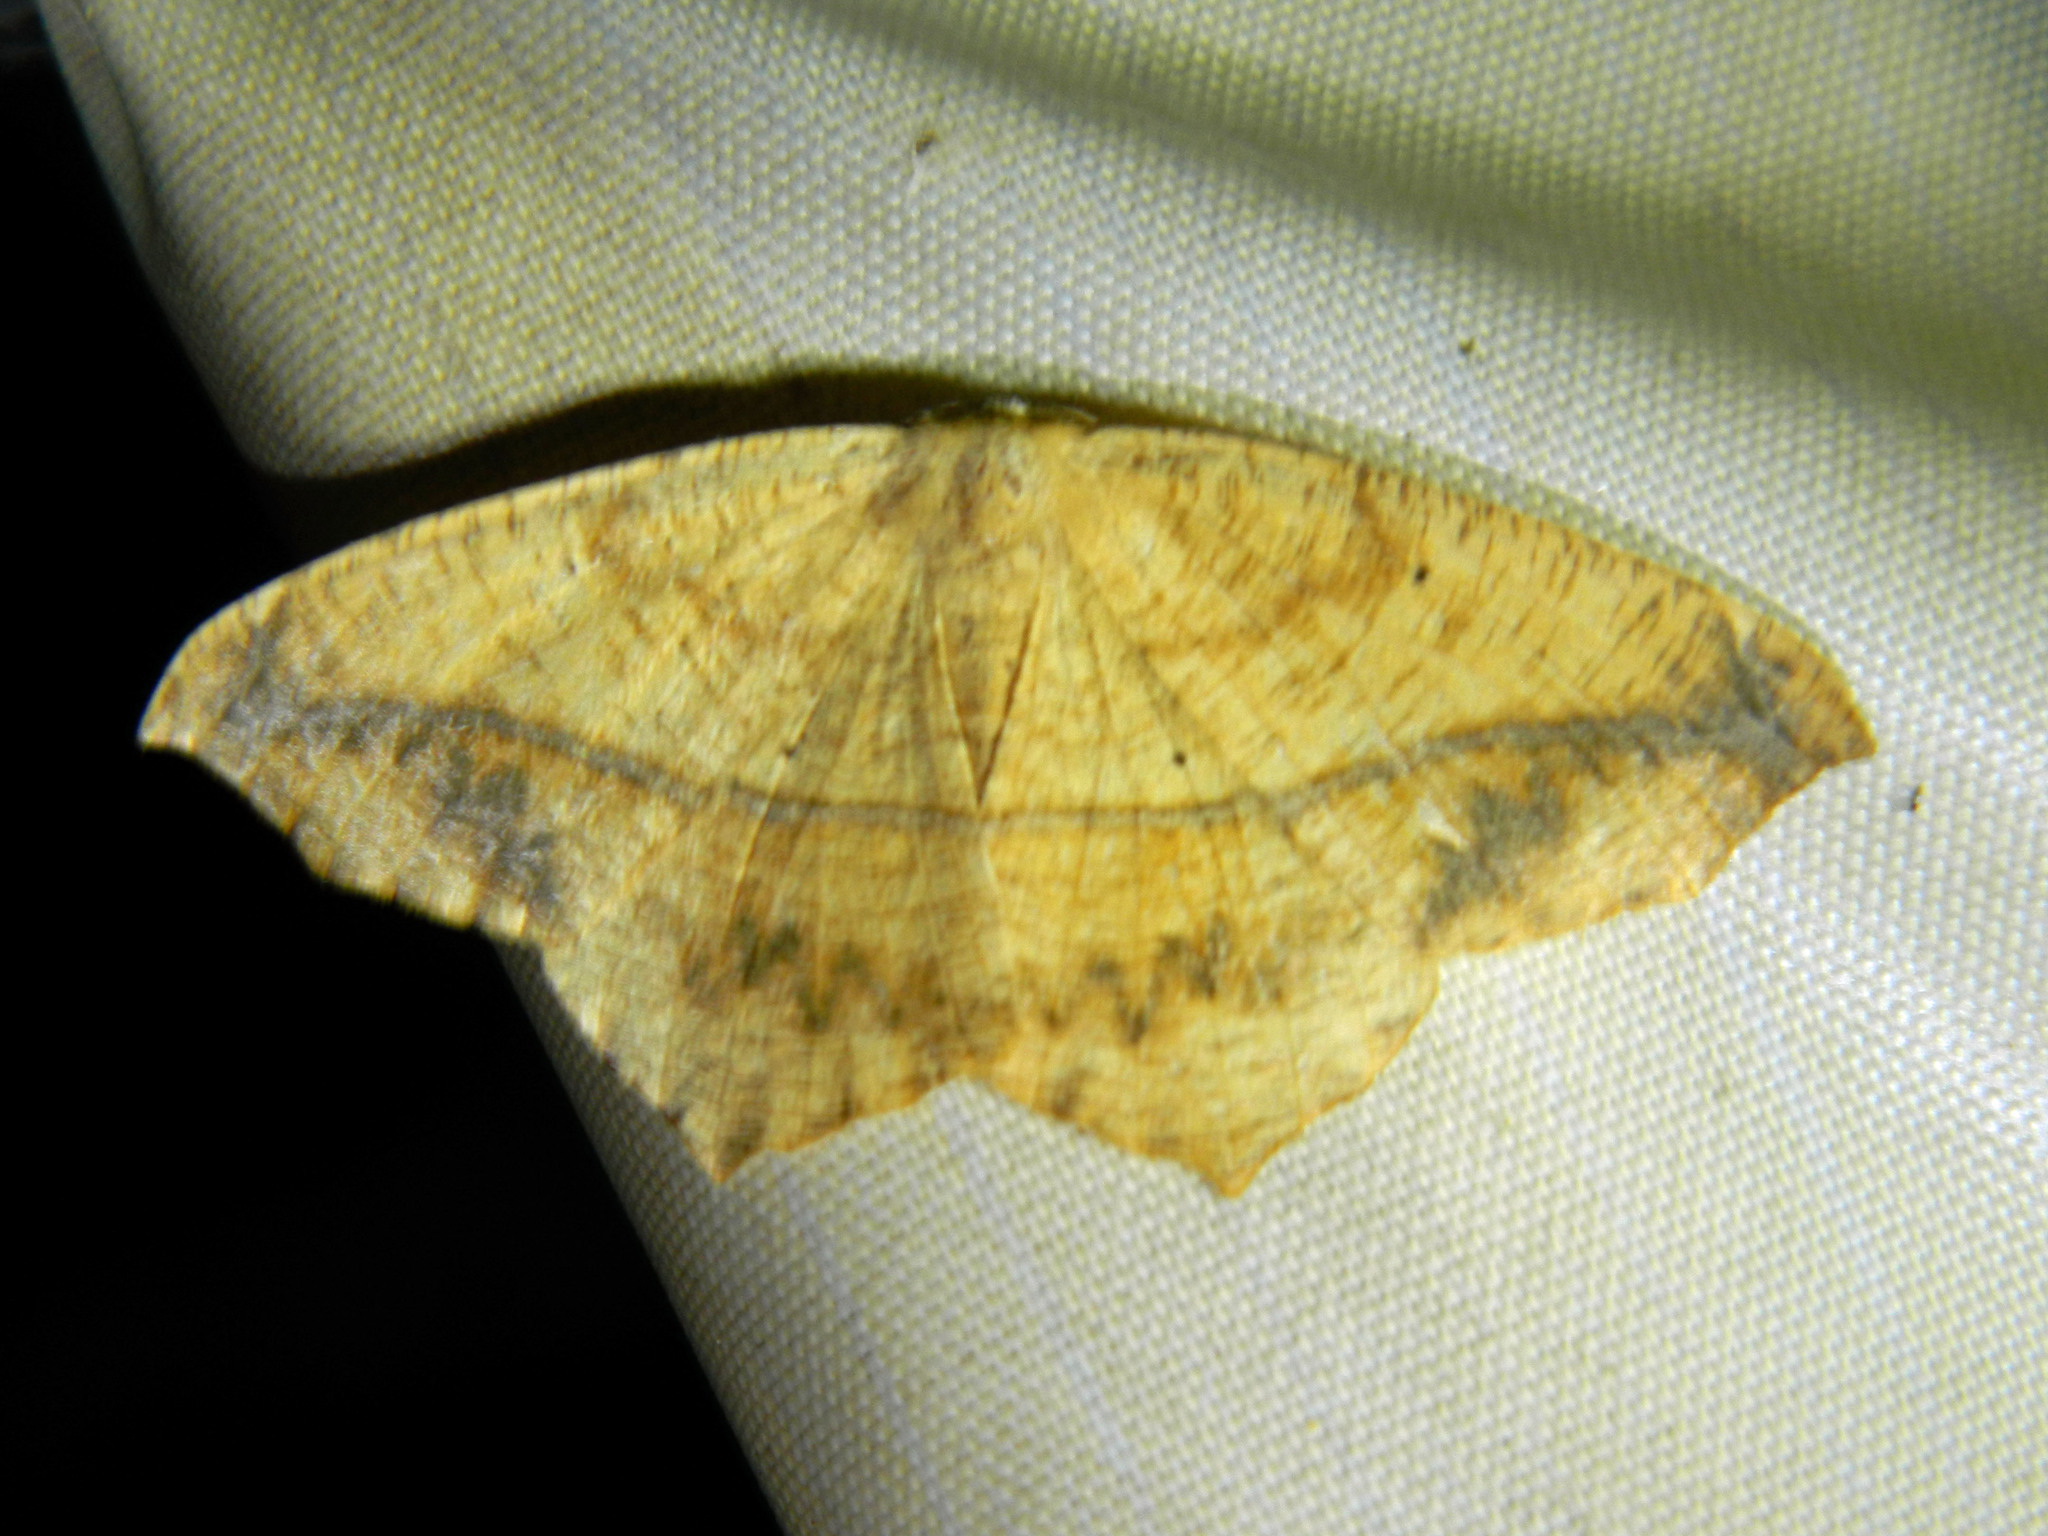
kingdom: Animalia
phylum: Arthropoda
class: Insecta
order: Lepidoptera
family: Geometridae
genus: Prochoerodes
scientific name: Prochoerodes lineola
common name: Large maple spanworm
